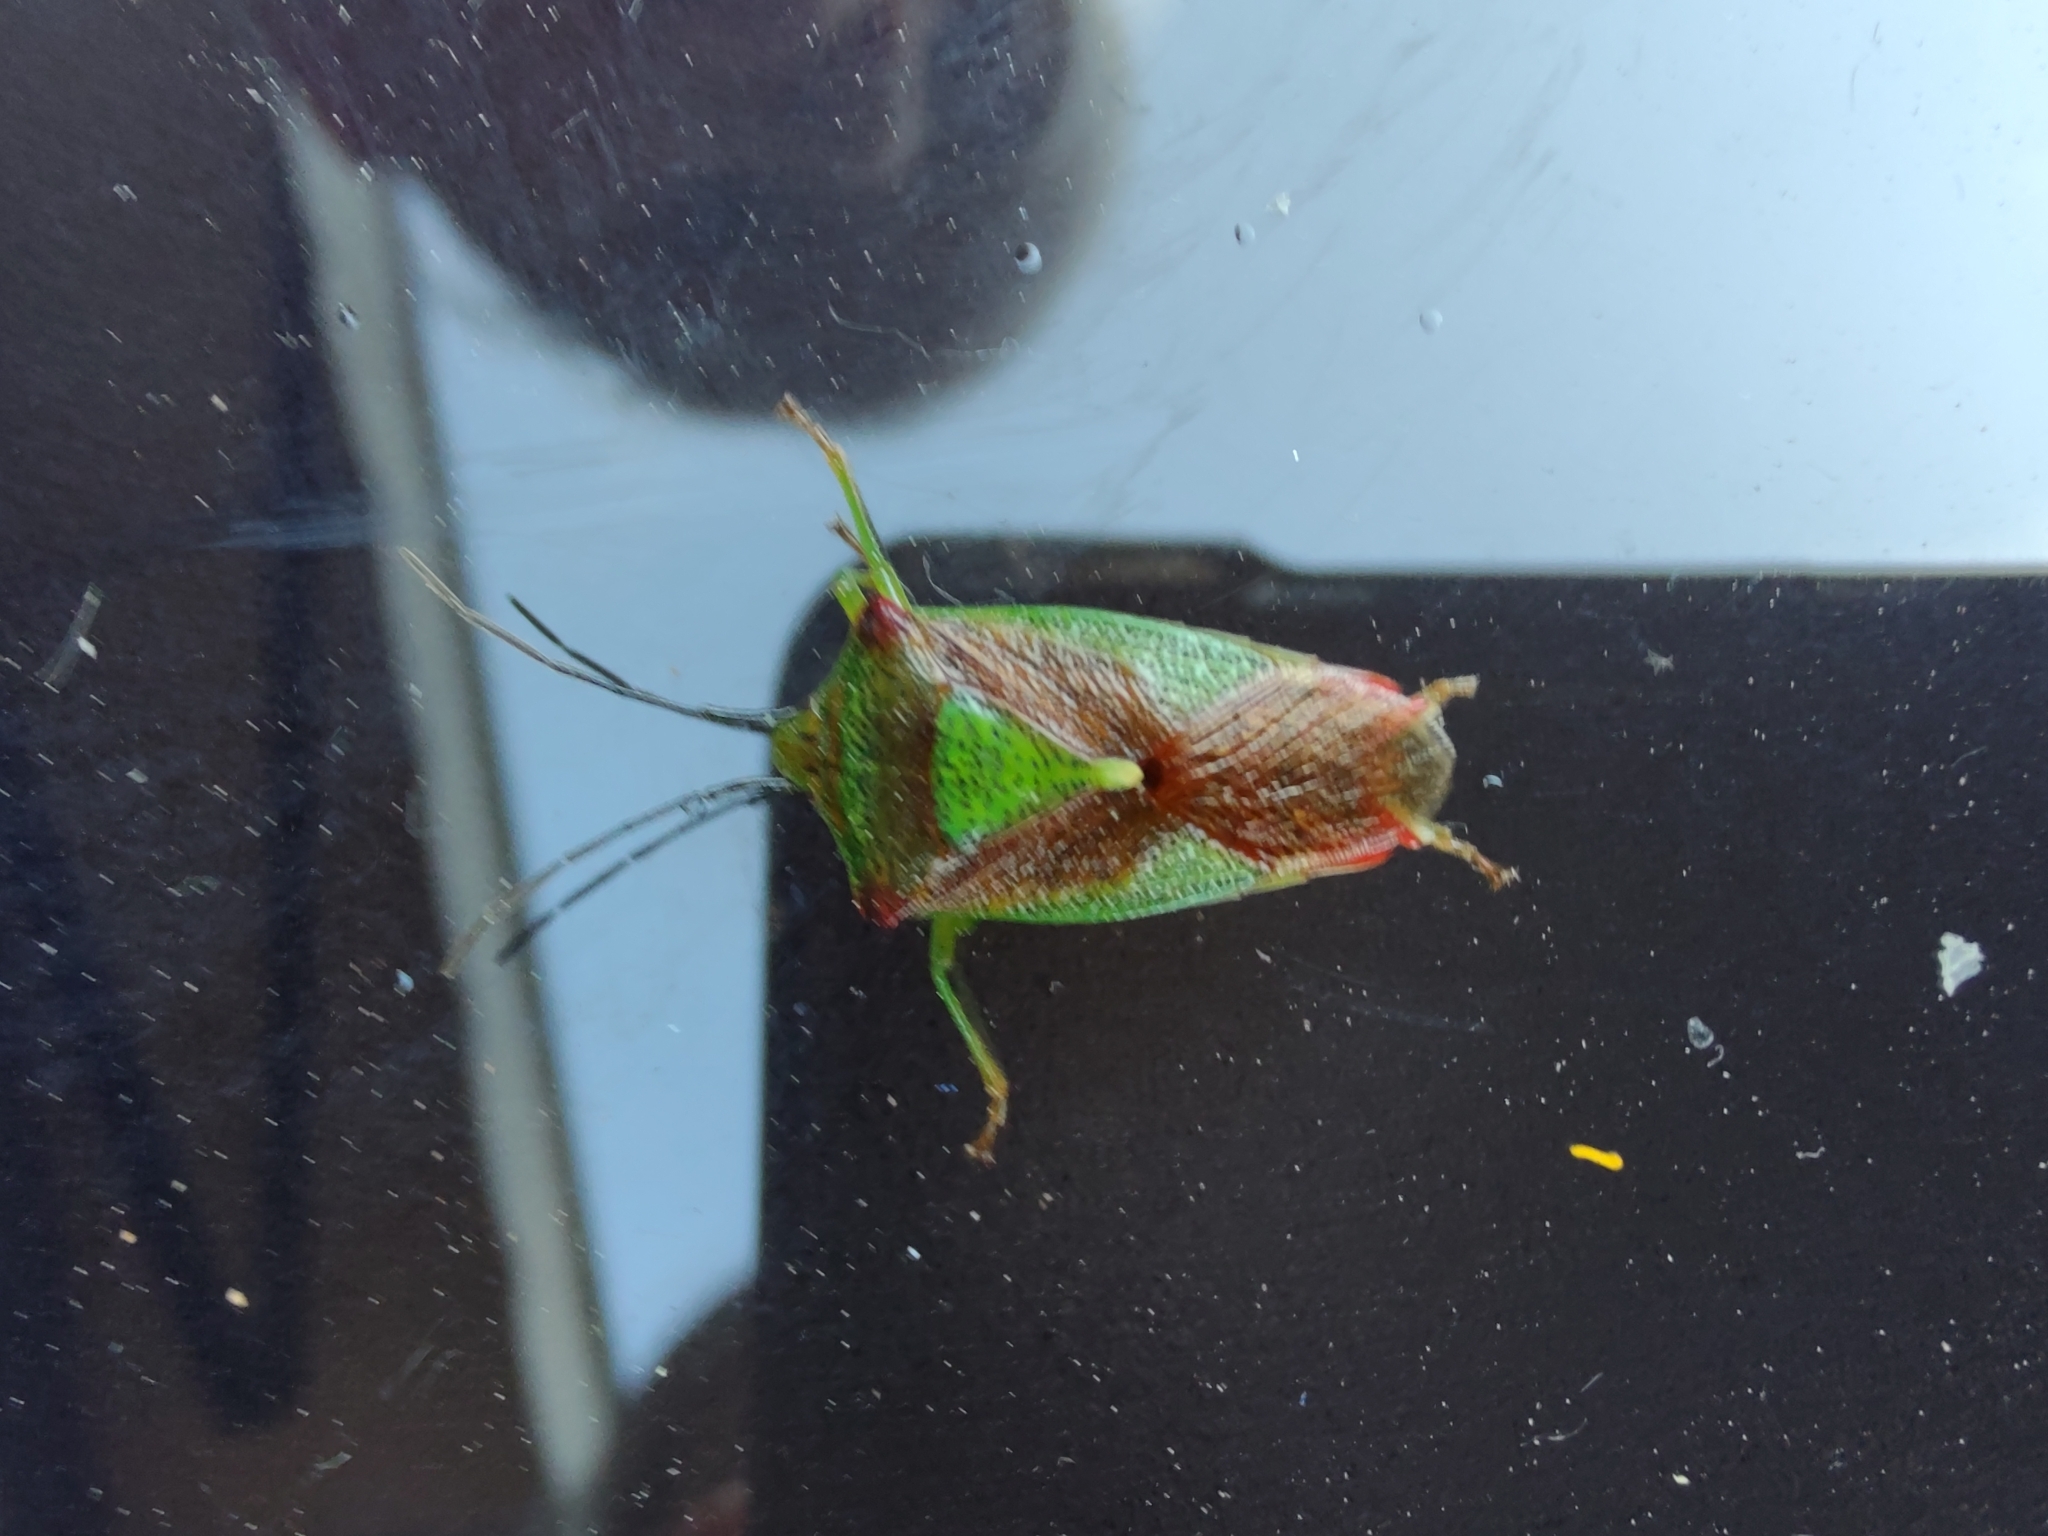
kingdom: Animalia
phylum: Arthropoda
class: Insecta
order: Hemiptera
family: Acanthosomatidae
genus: Acanthosoma
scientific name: Acanthosoma haemorrhoidale
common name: Hawthorn shieldbug
